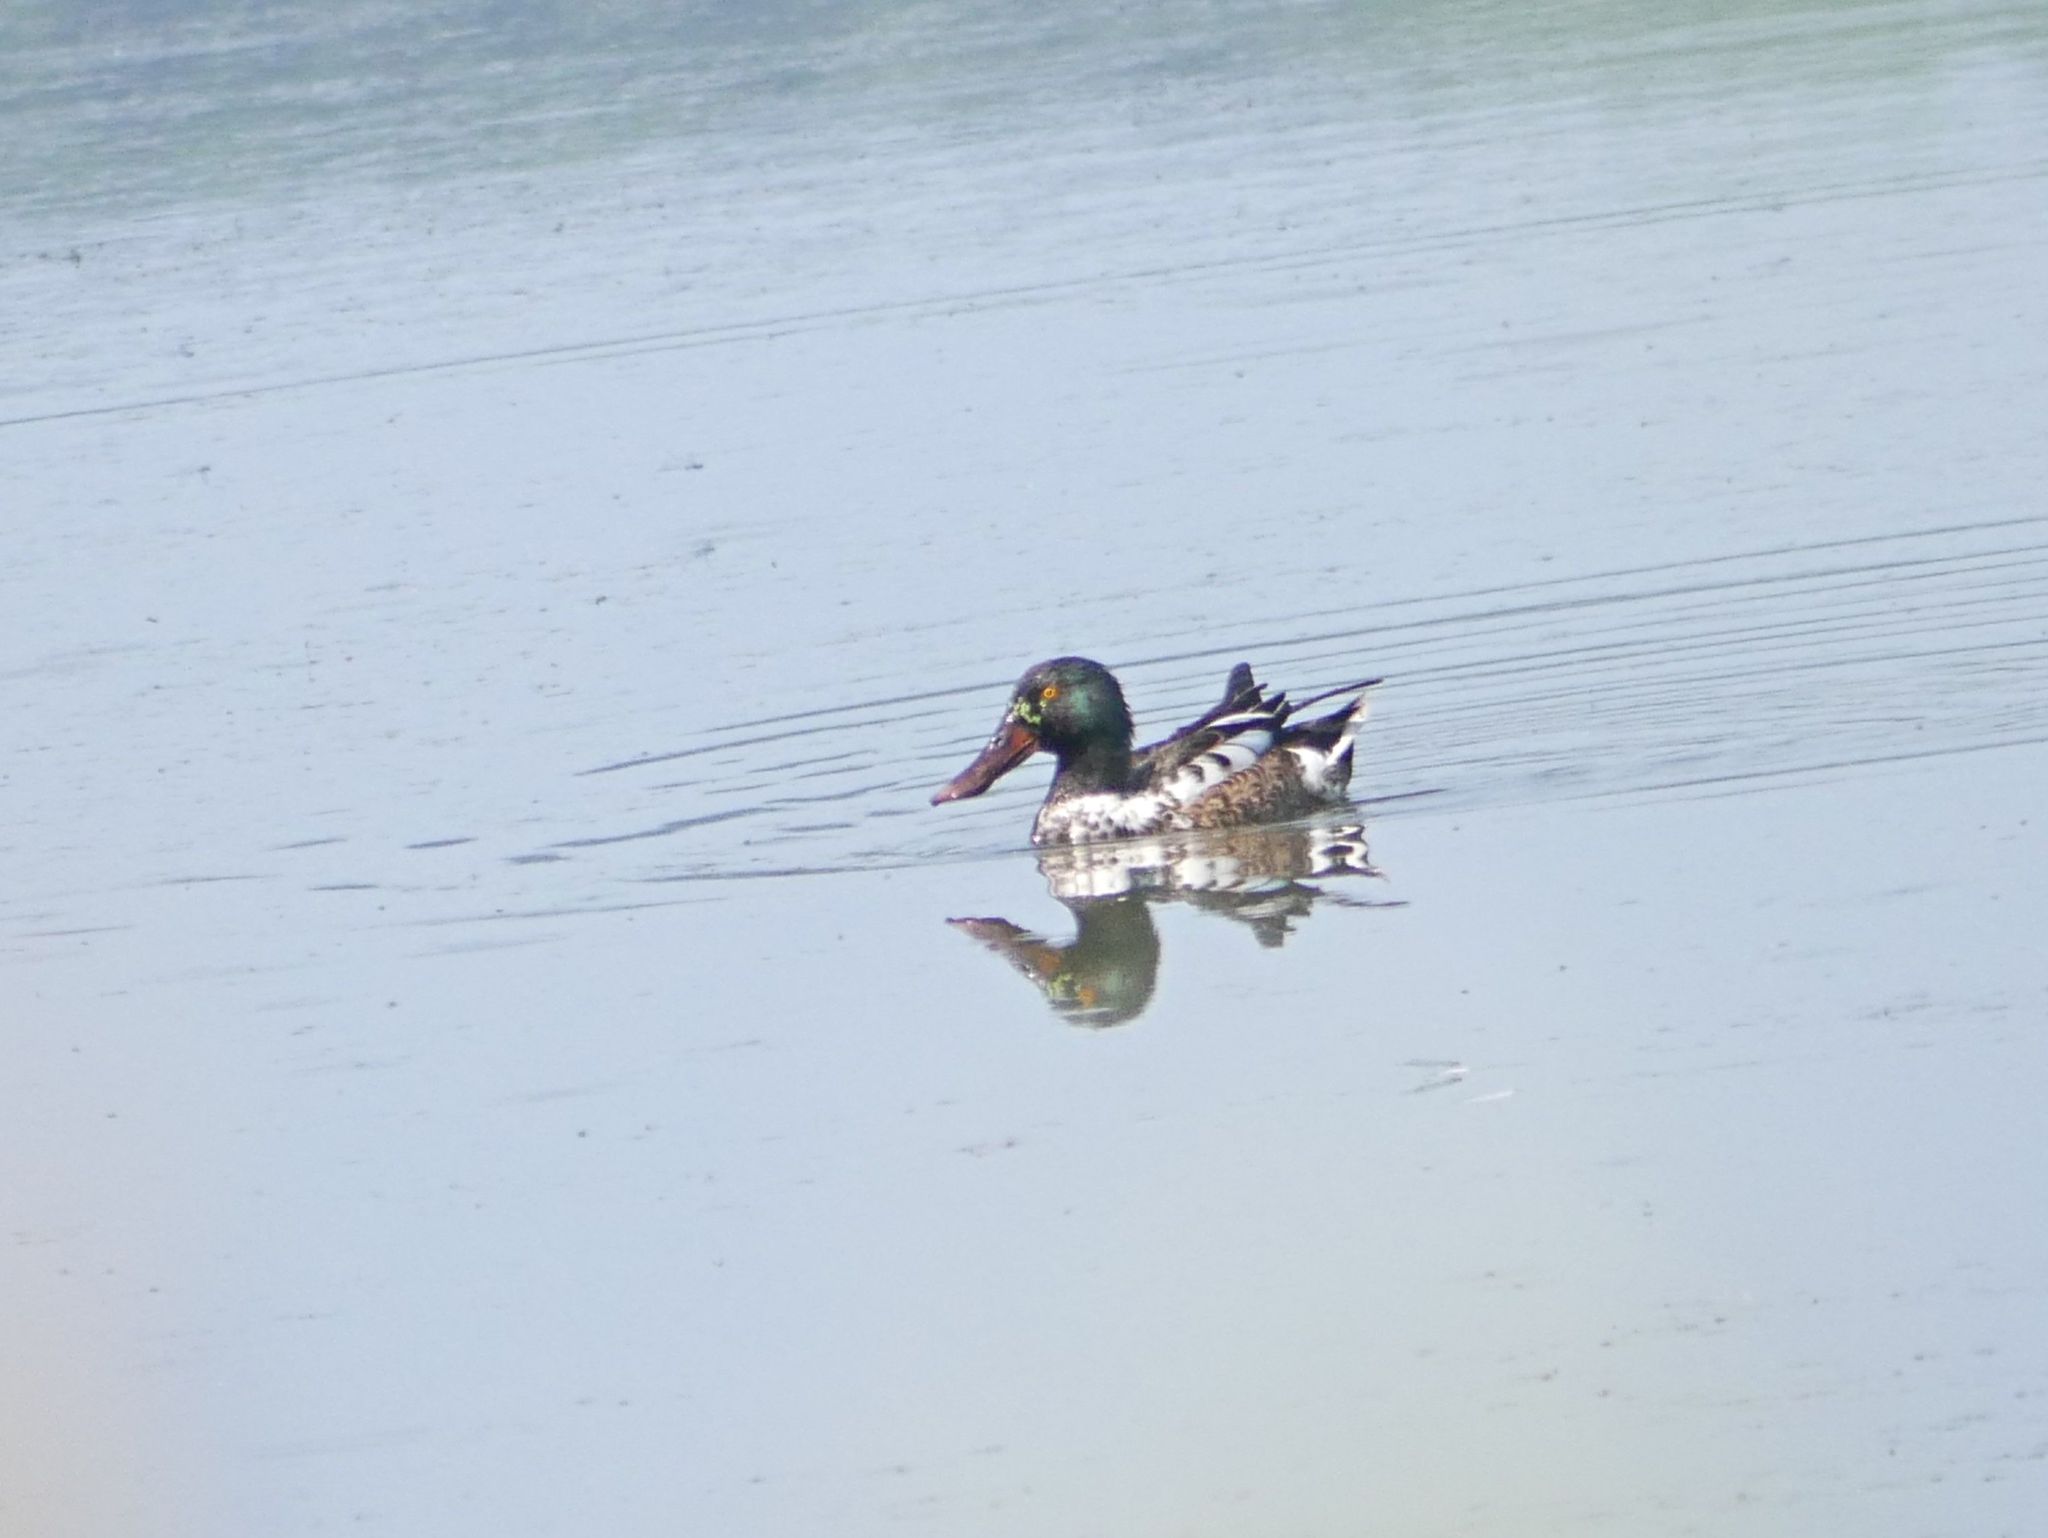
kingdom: Animalia
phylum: Chordata
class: Aves
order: Anseriformes
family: Anatidae
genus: Spatula
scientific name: Spatula clypeata
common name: Northern shoveler
